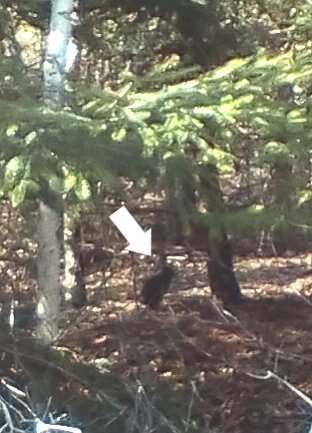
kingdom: Animalia
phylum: Chordata
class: Mammalia
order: Lagomorpha
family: Leporidae
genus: Lepus
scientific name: Lepus americanus
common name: Snowshoe hare
